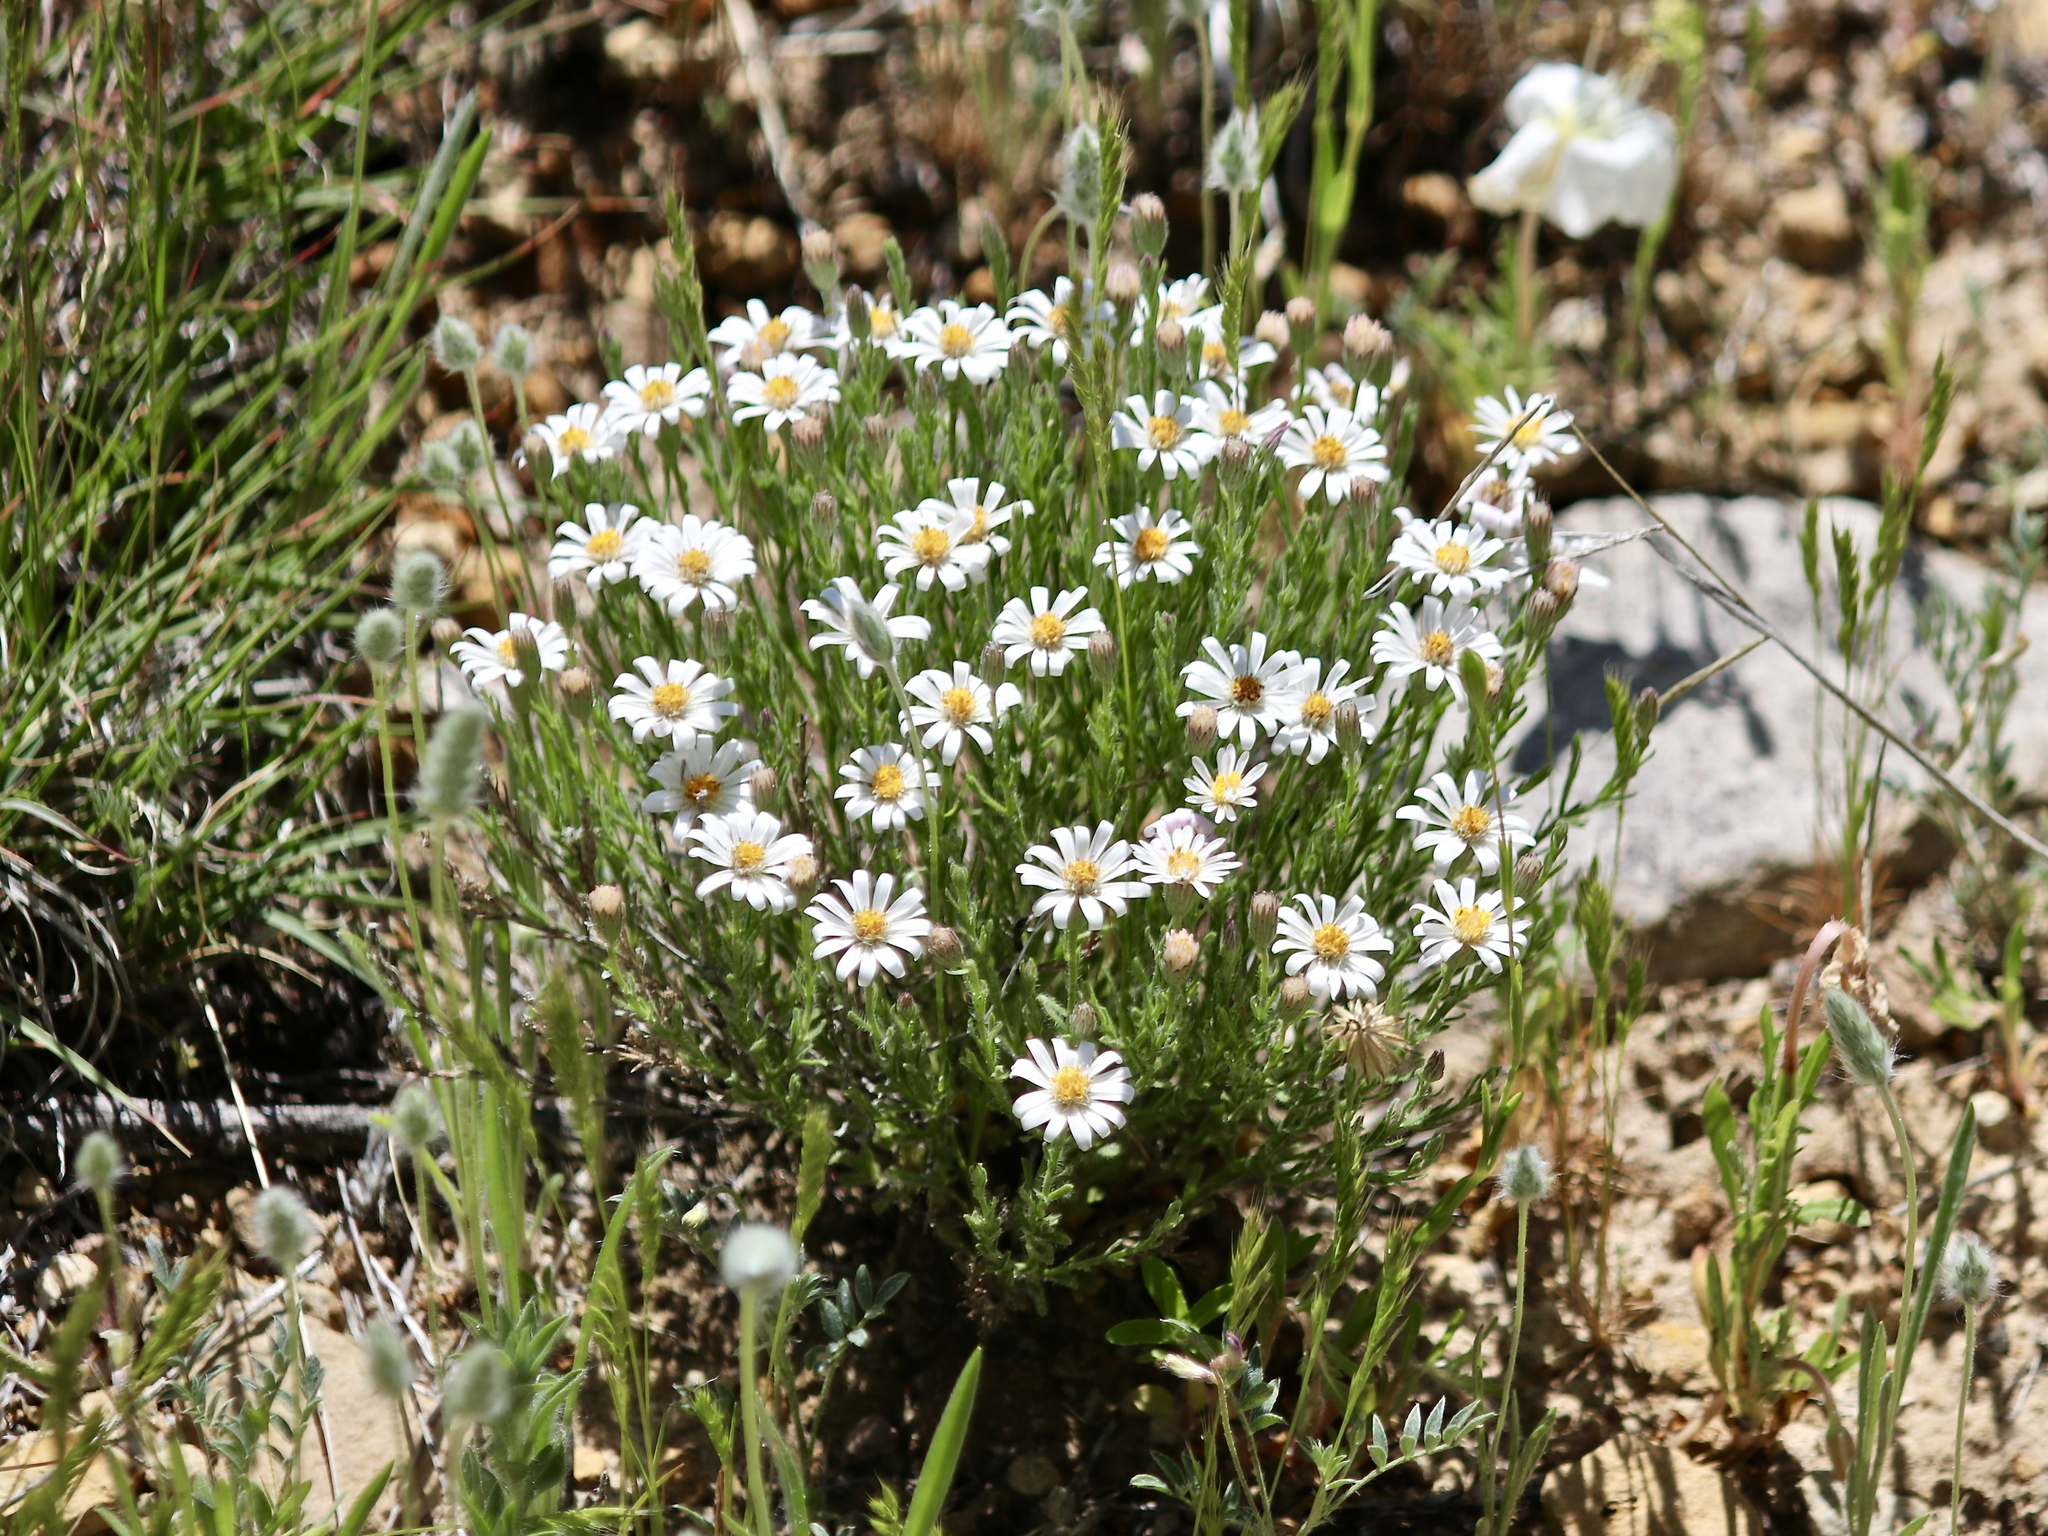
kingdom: Plantae
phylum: Tracheophyta
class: Magnoliopsida
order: Asterales
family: Asteraceae
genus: Chaetopappa
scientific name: Chaetopappa ericoides
